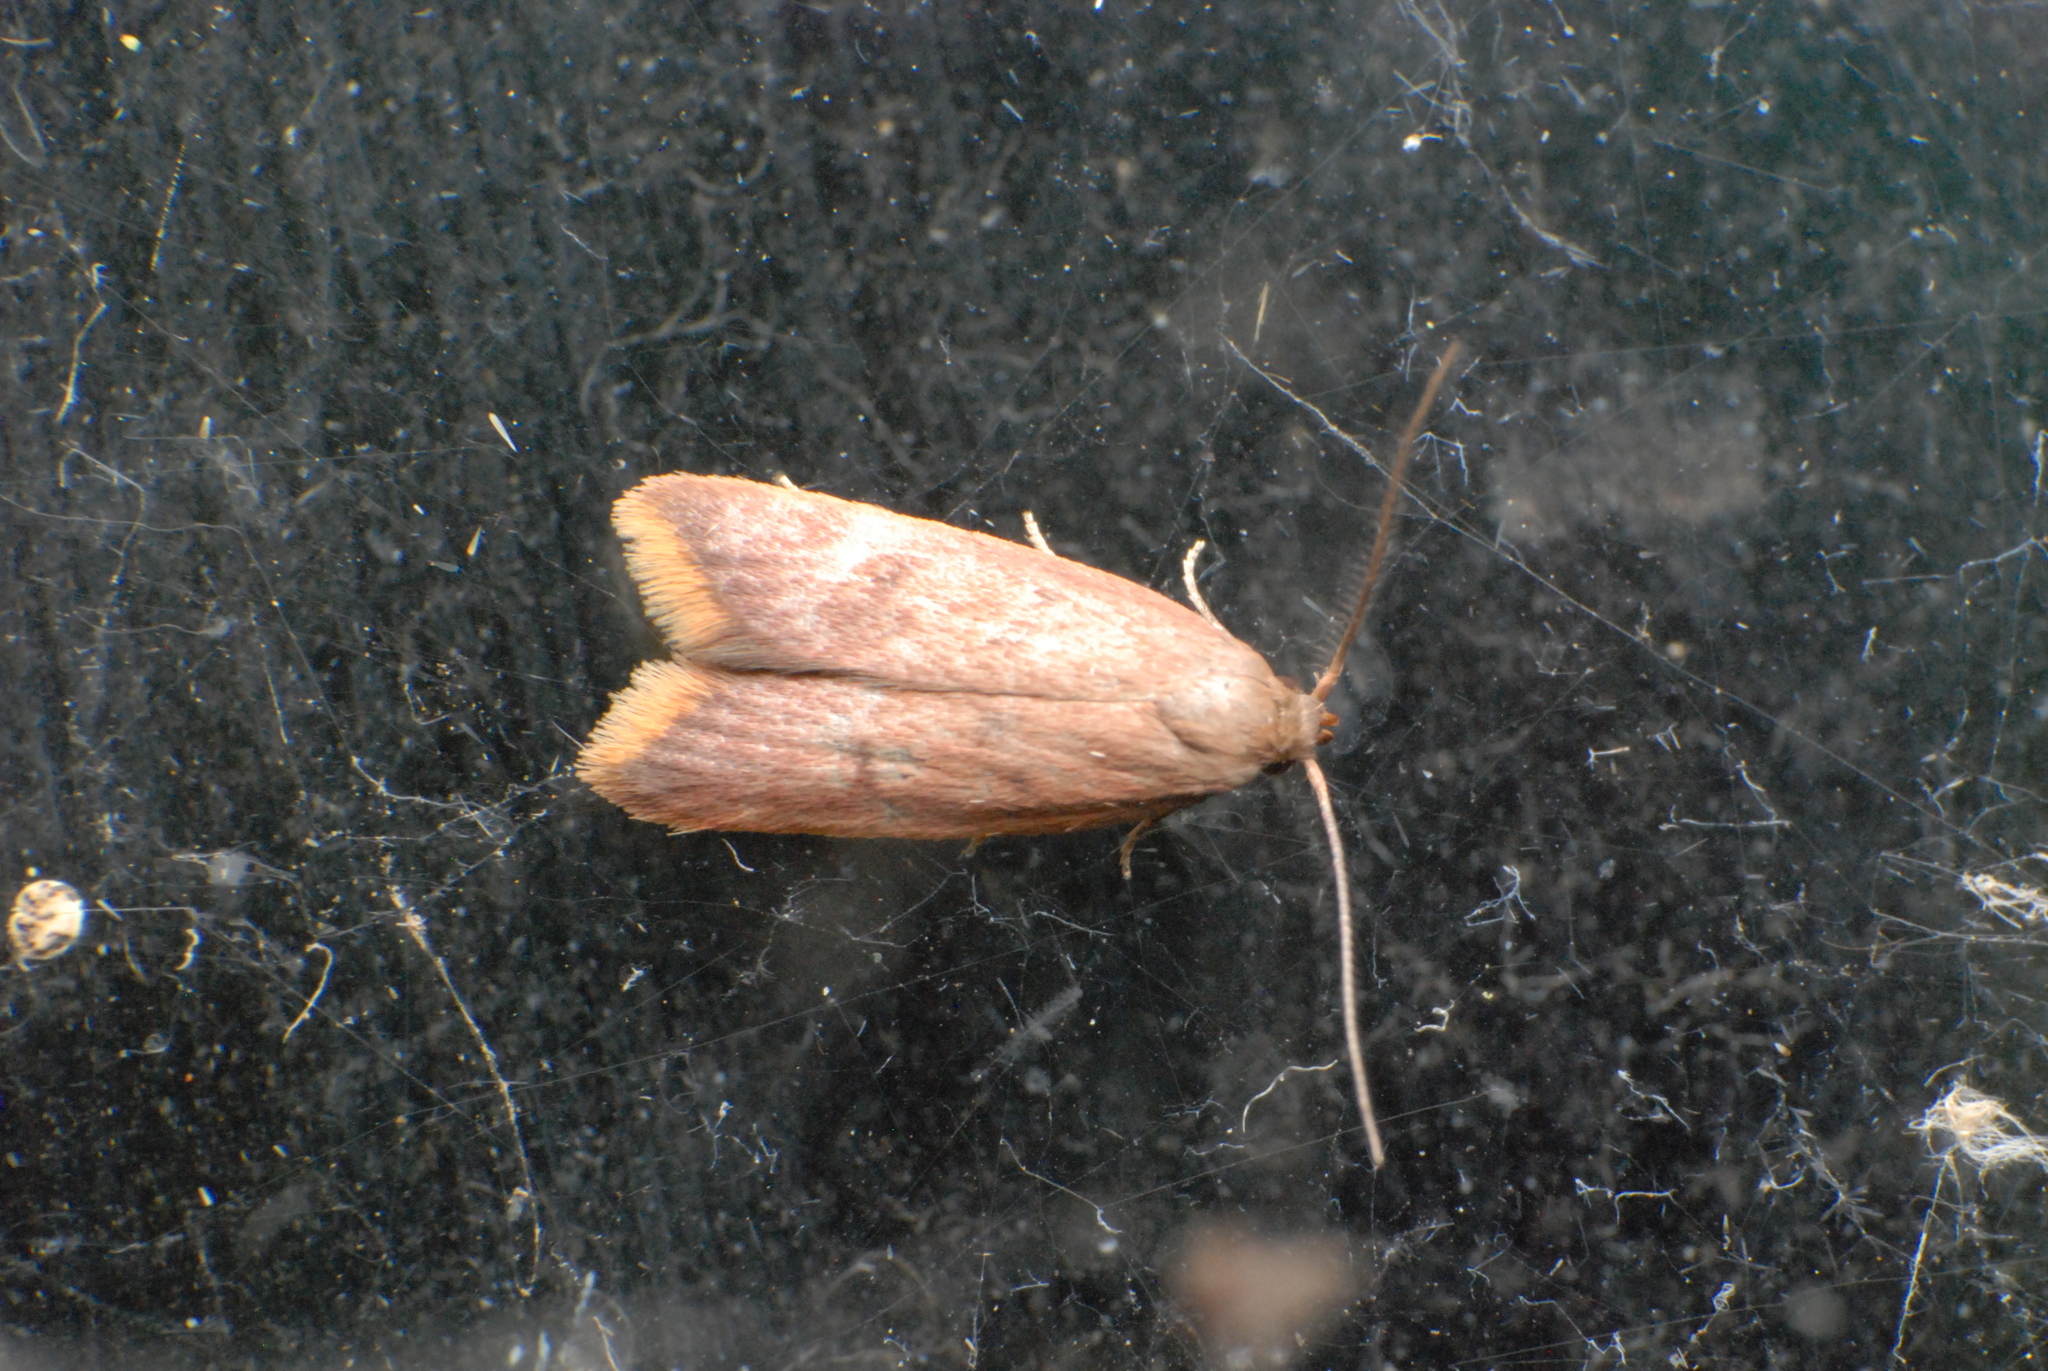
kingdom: Animalia
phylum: Arthropoda
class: Insecta
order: Lepidoptera
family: Oecophoridae
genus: Tachystola
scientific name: Tachystola acroxantha
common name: Ruddy streak
